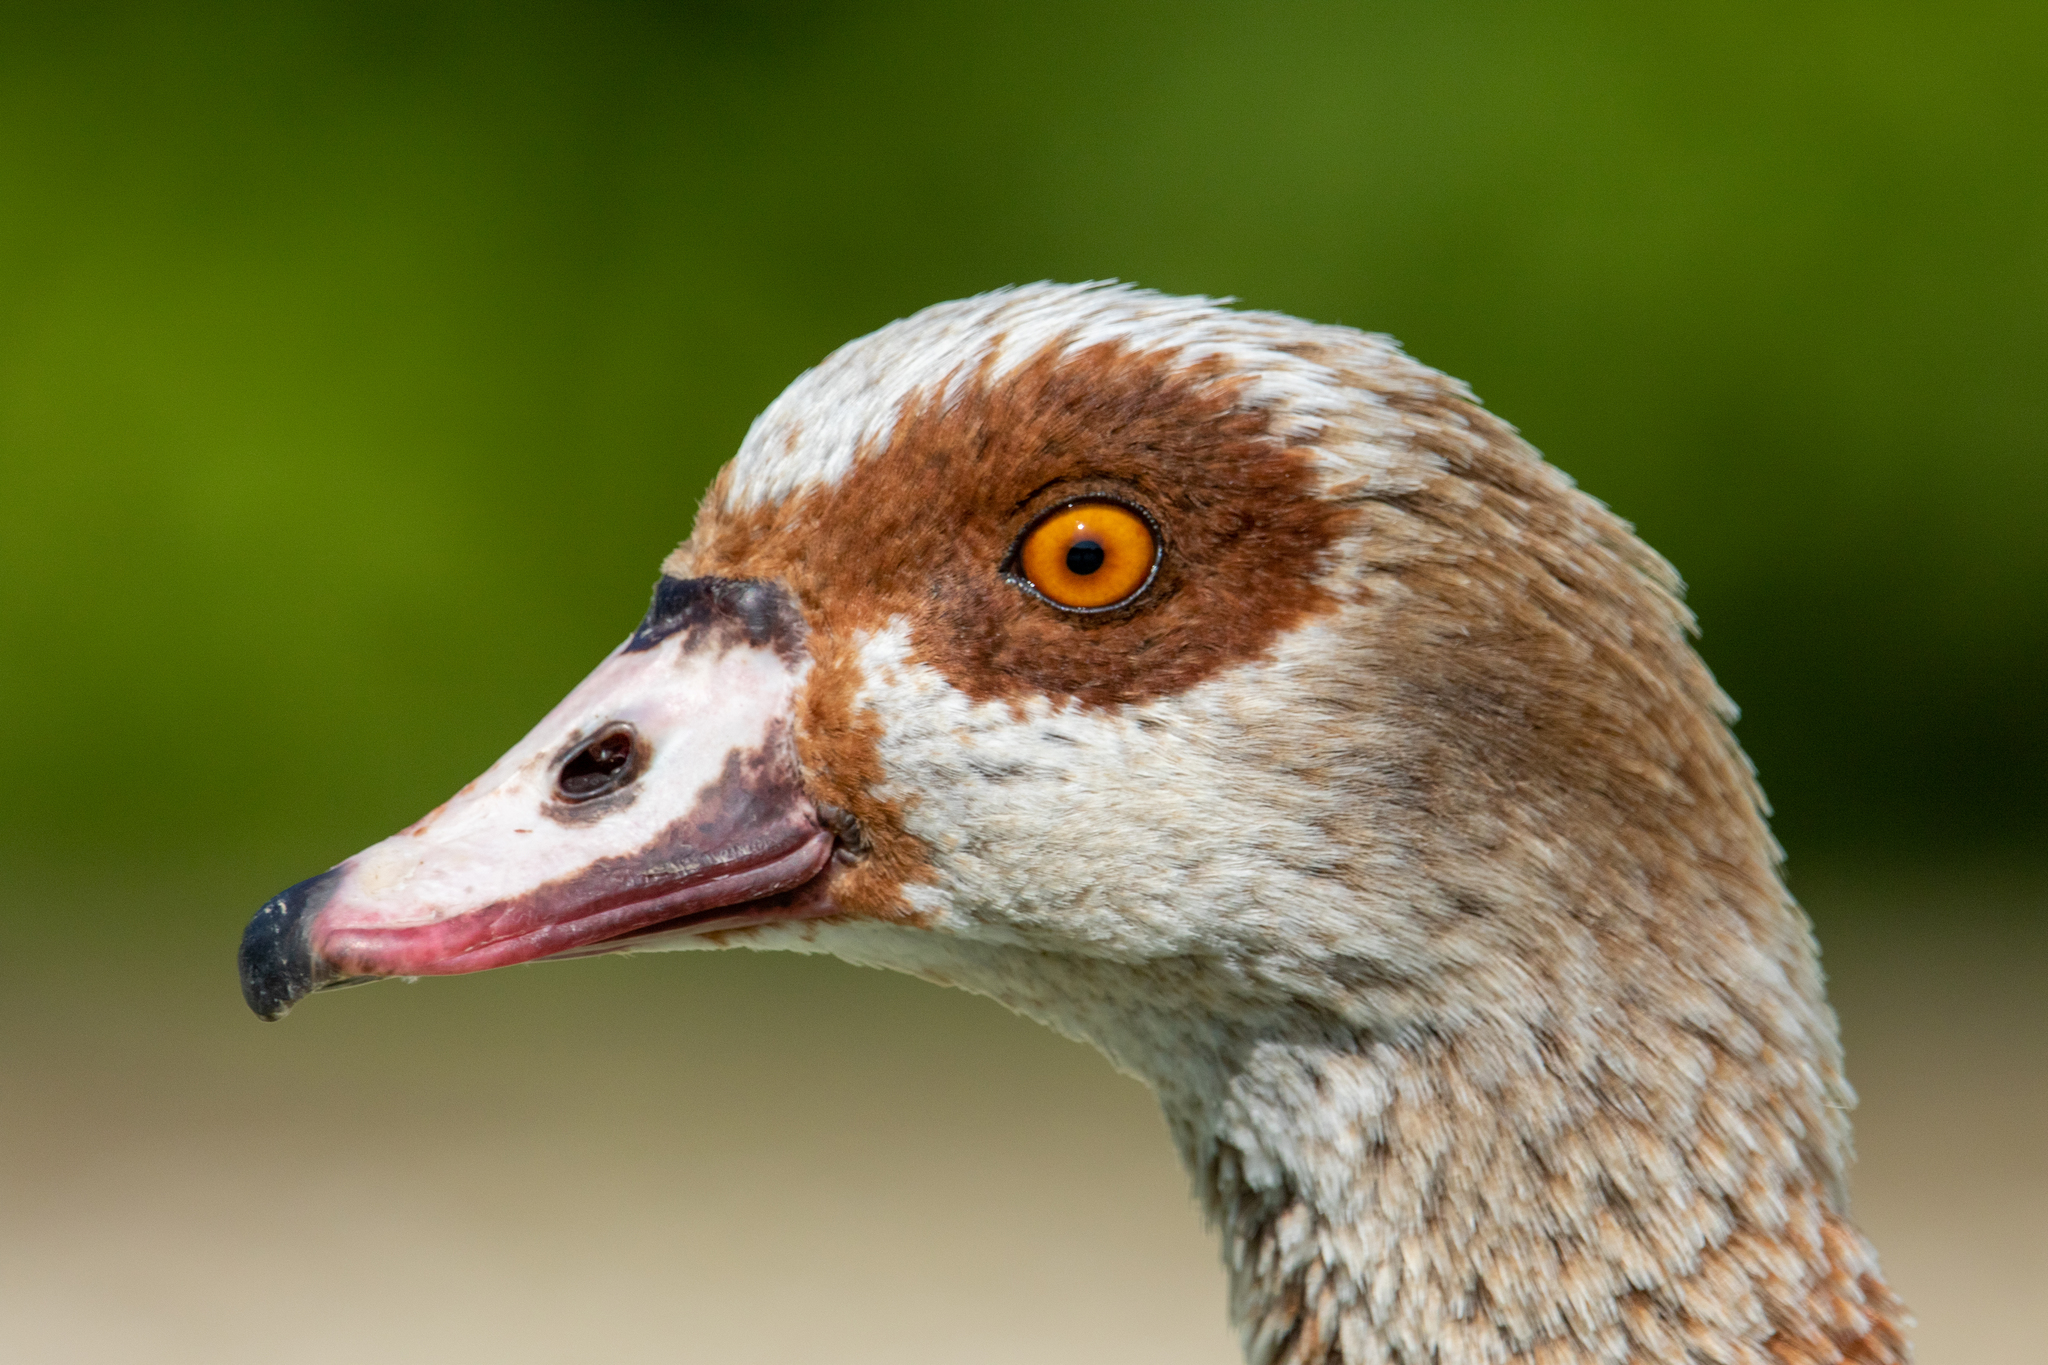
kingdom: Animalia
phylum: Chordata
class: Aves
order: Anseriformes
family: Anatidae
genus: Alopochen
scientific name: Alopochen aegyptiaca
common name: Egyptian goose
